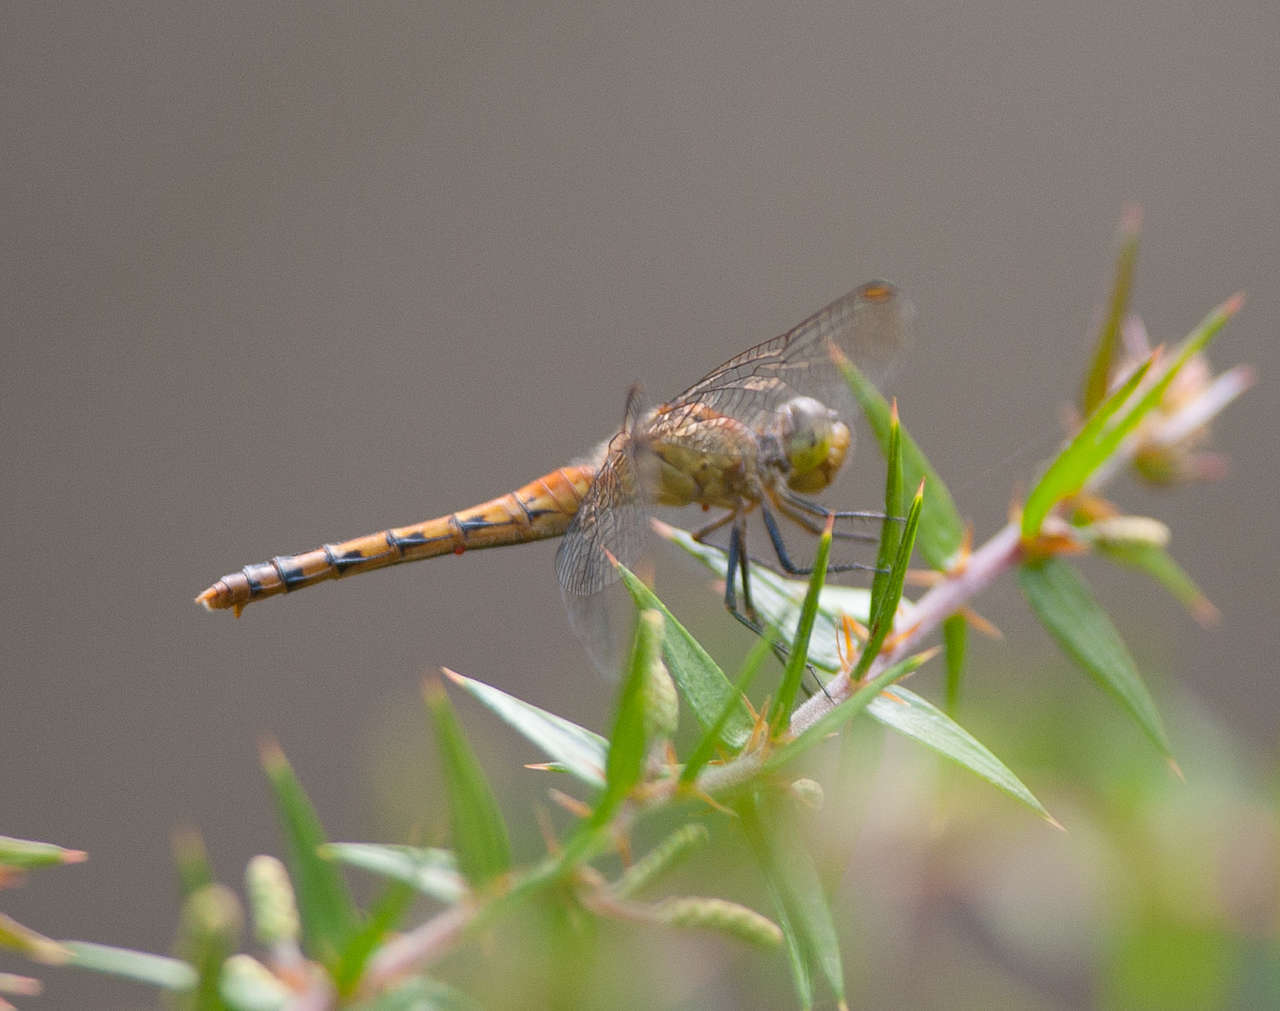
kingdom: Animalia
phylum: Arthropoda
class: Insecta
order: Odonata
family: Libellulidae
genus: Diplacodes
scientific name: Diplacodes melanopsis
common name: Black-faced percher
